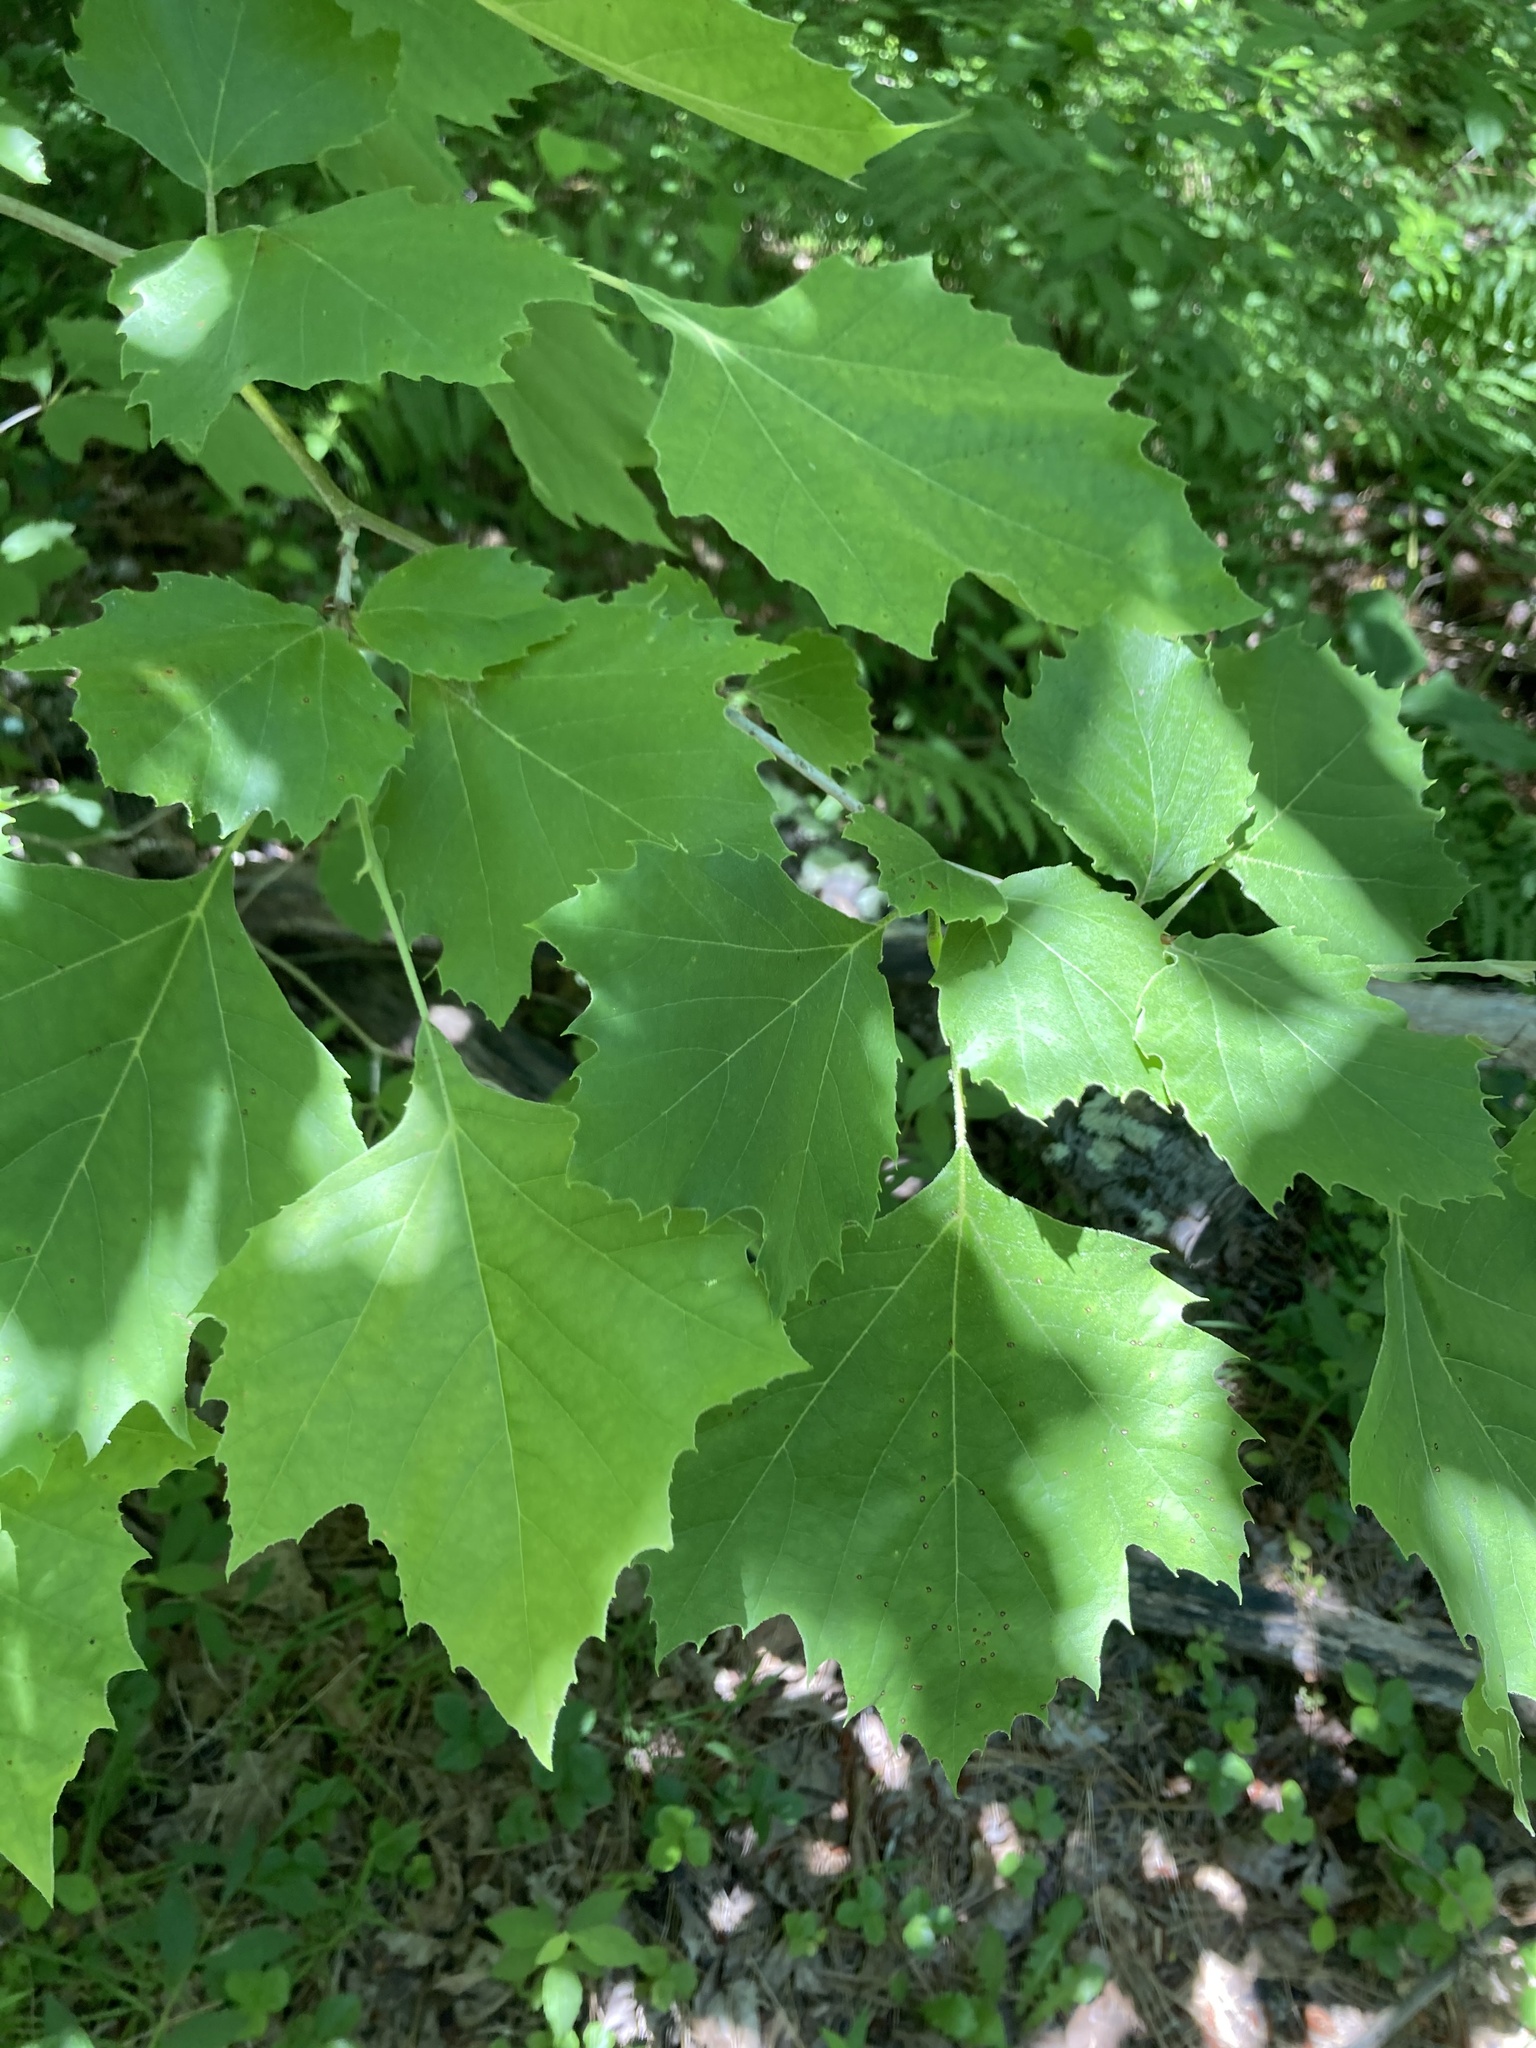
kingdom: Plantae
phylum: Tracheophyta
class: Magnoliopsida
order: Proteales
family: Platanaceae
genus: Platanus
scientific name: Platanus occidentalis
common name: American sycamore
